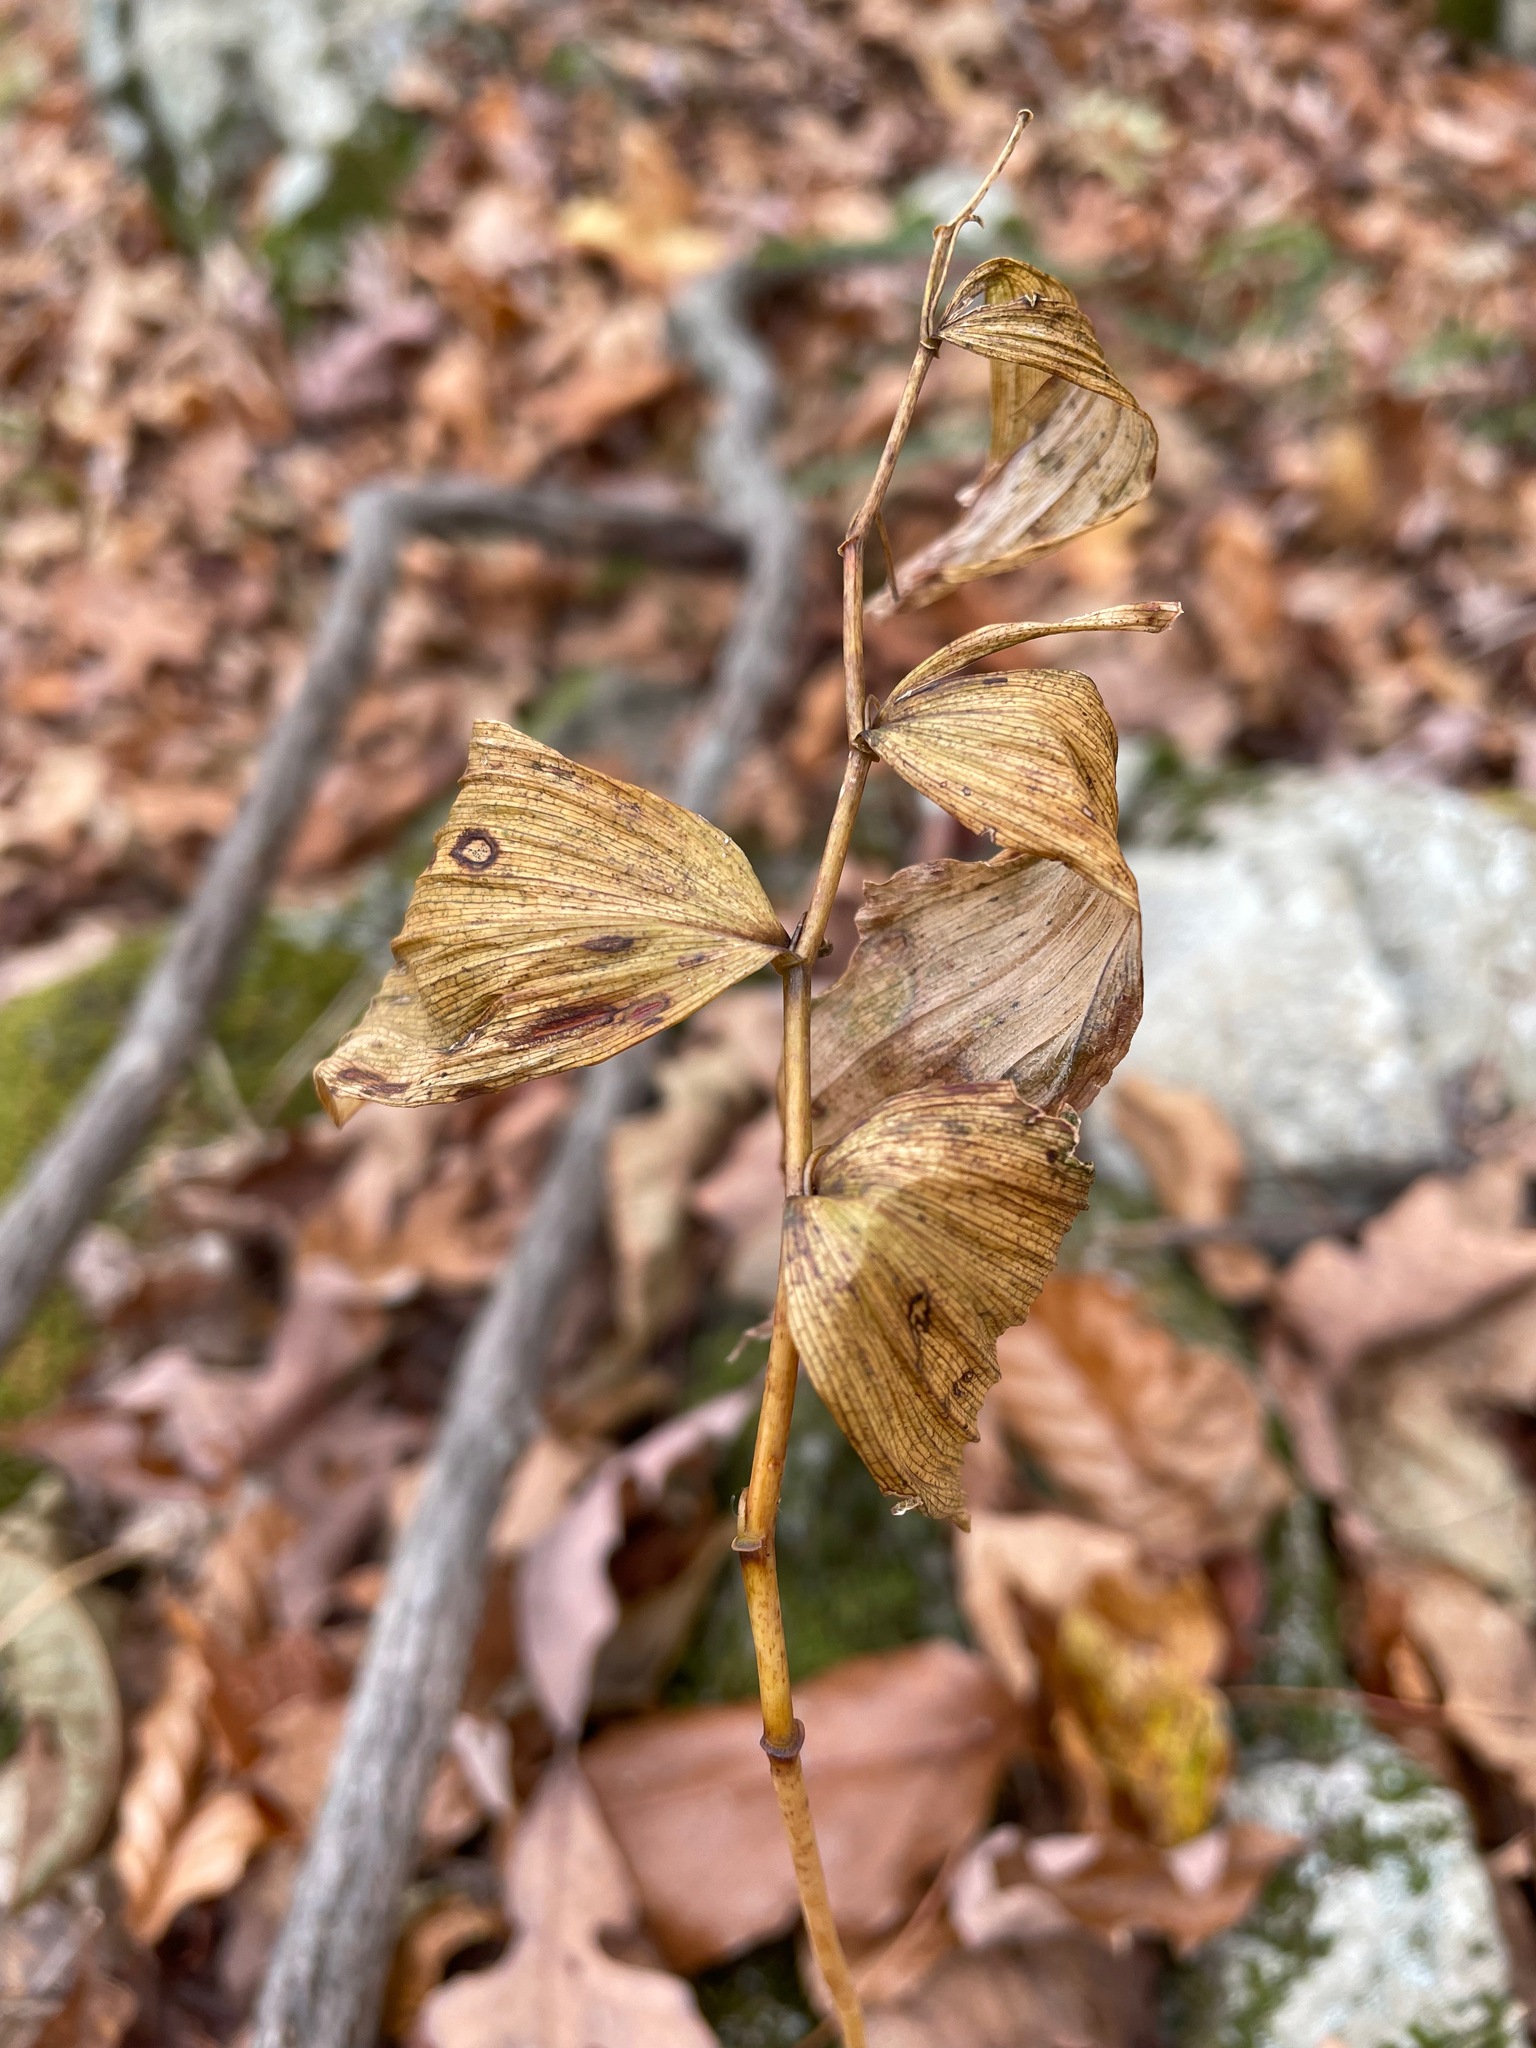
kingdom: Plantae
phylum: Tracheophyta
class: Liliopsida
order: Asparagales
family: Asparagaceae
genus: Polygonatum
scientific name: Polygonatum pubescens
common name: Downy solomon's seal
